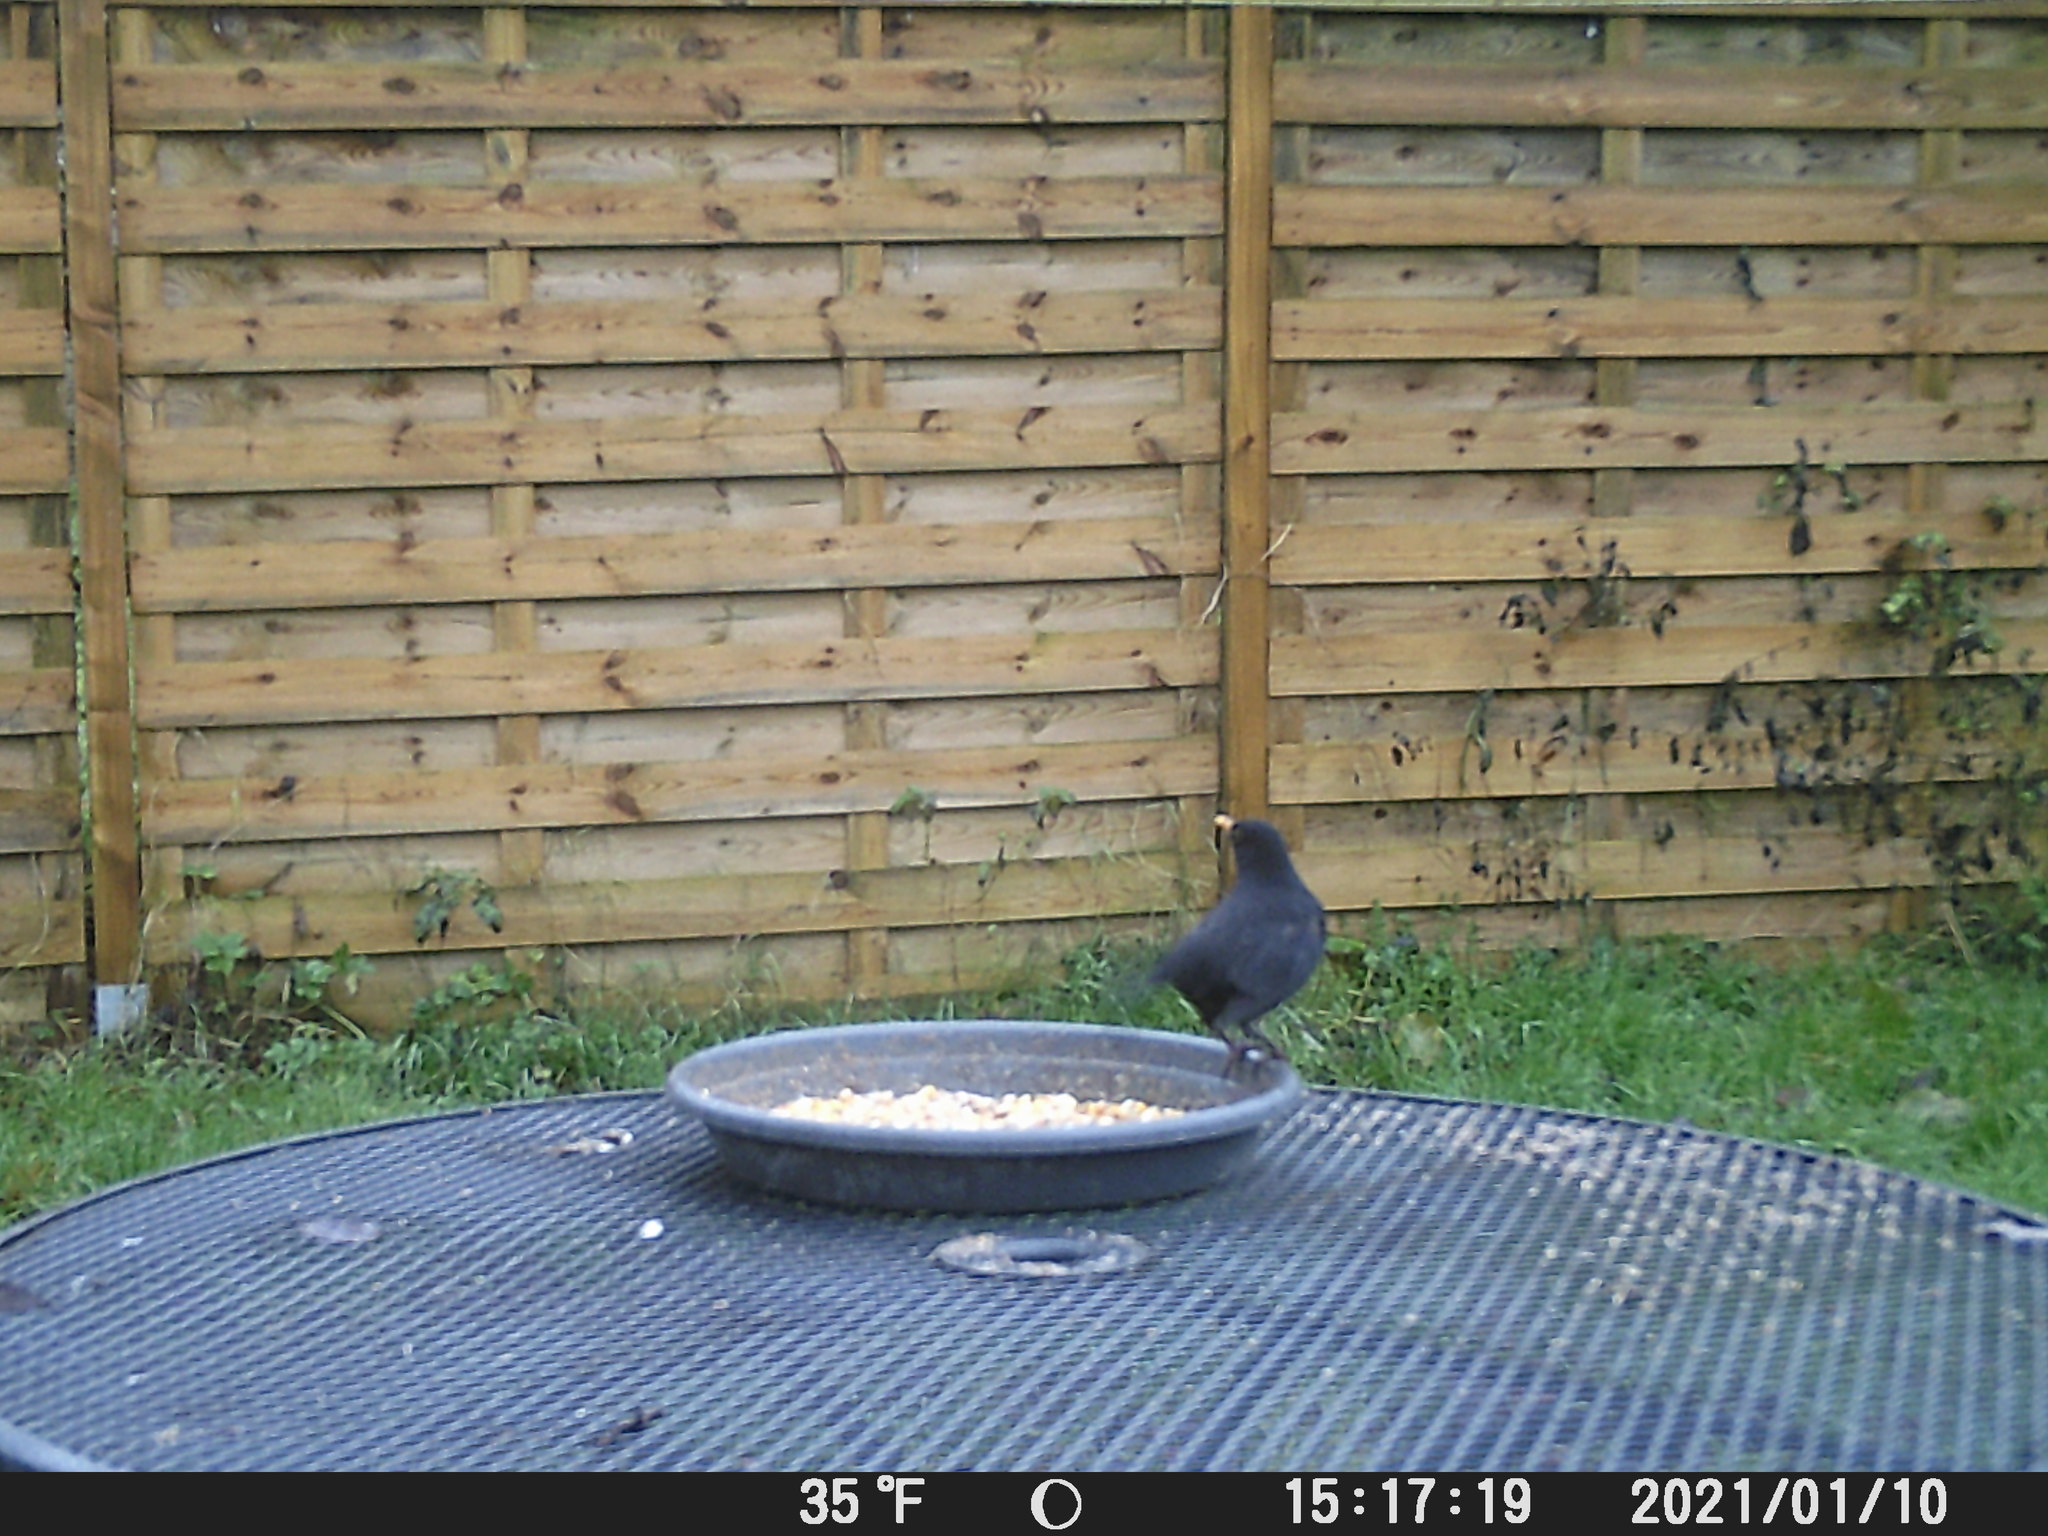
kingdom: Animalia
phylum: Chordata
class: Aves
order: Passeriformes
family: Turdidae
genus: Turdus
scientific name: Turdus merula
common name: Common blackbird
